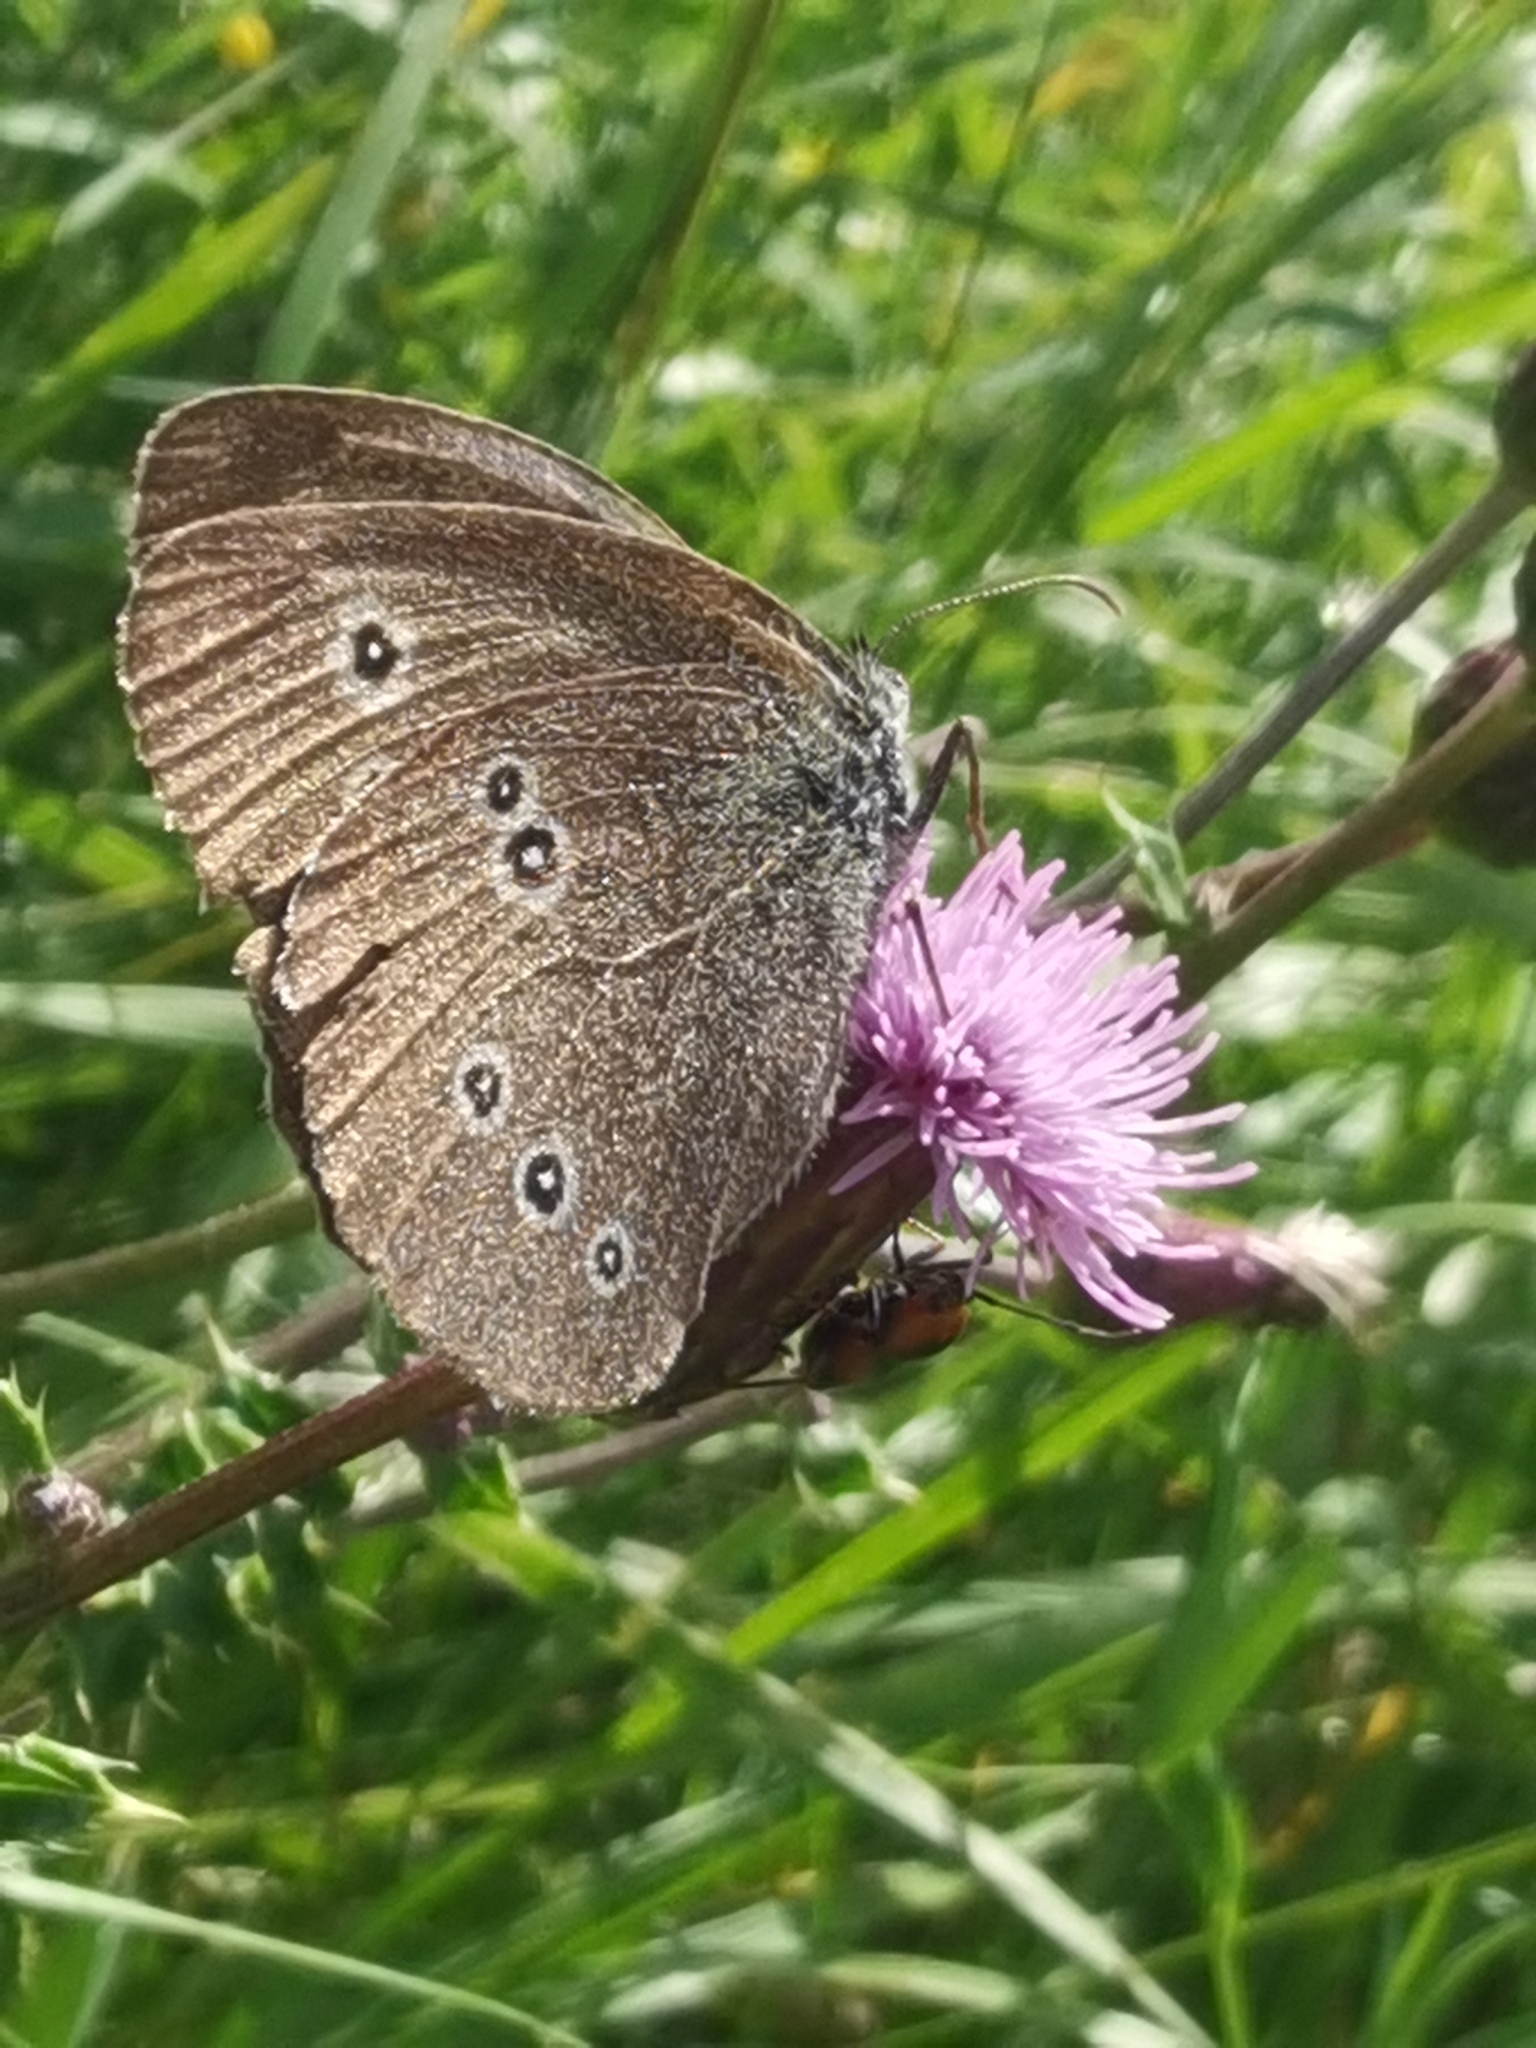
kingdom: Animalia
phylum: Arthropoda
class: Insecta
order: Lepidoptera
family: Nymphalidae
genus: Aphantopus
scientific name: Aphantopus hyperantus
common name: Ringlet
